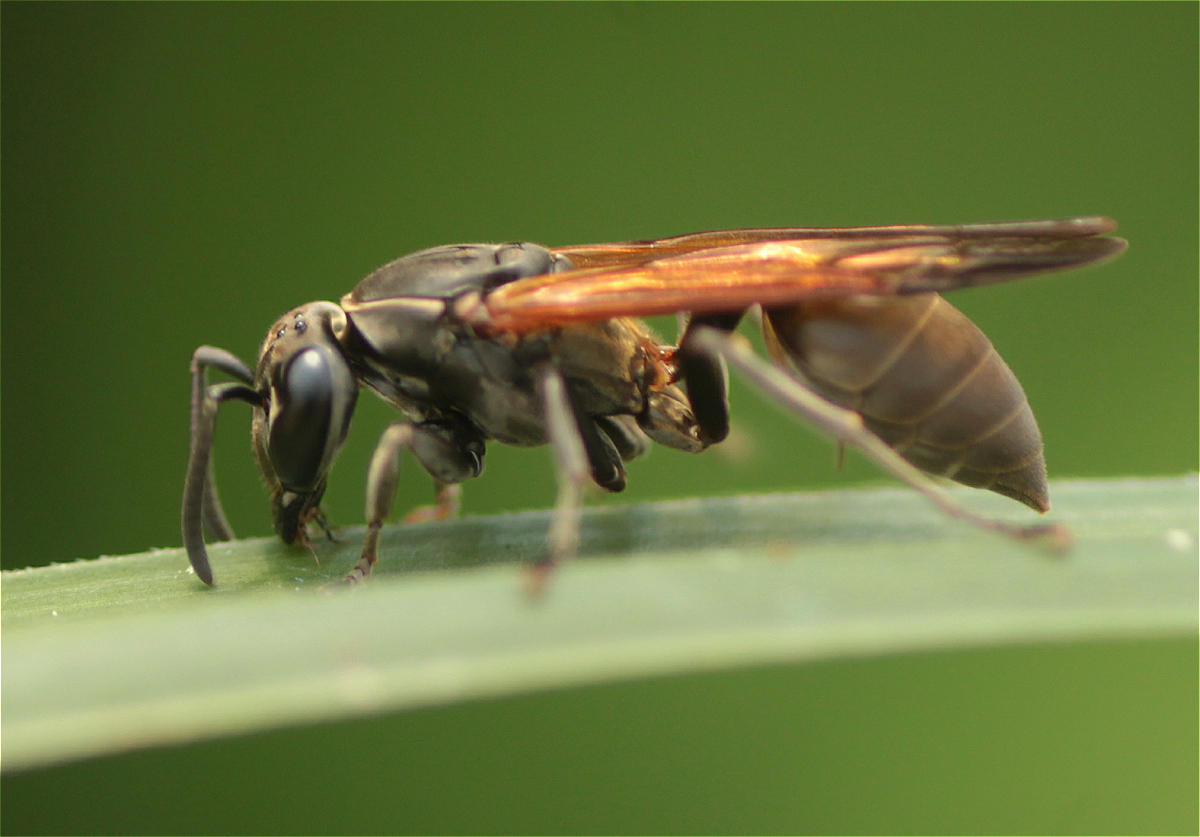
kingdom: Animalia
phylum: Arthropoda
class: Insecta
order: Hymenoptera
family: Eumenidae
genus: Polybia
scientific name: Polybia rejecta
